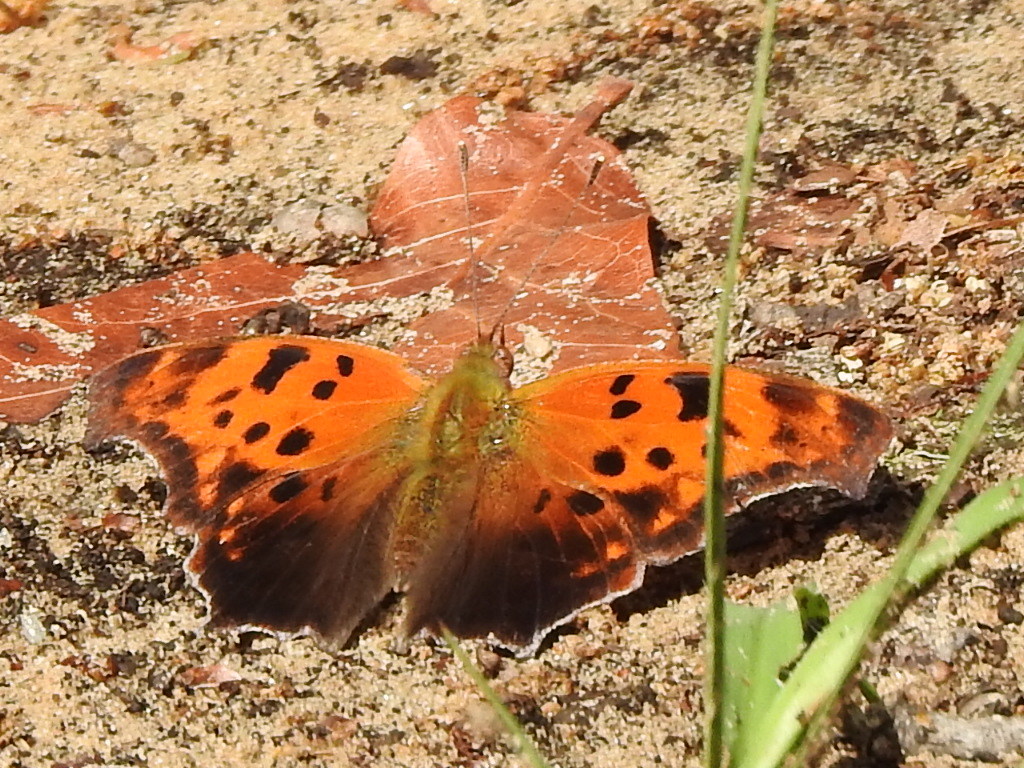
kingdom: Animalia
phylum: Arthropoda
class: Insecta
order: Lepidoptera
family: Nymphalidae
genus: Polygonia
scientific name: Polygonia interrogationis
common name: Question mark
